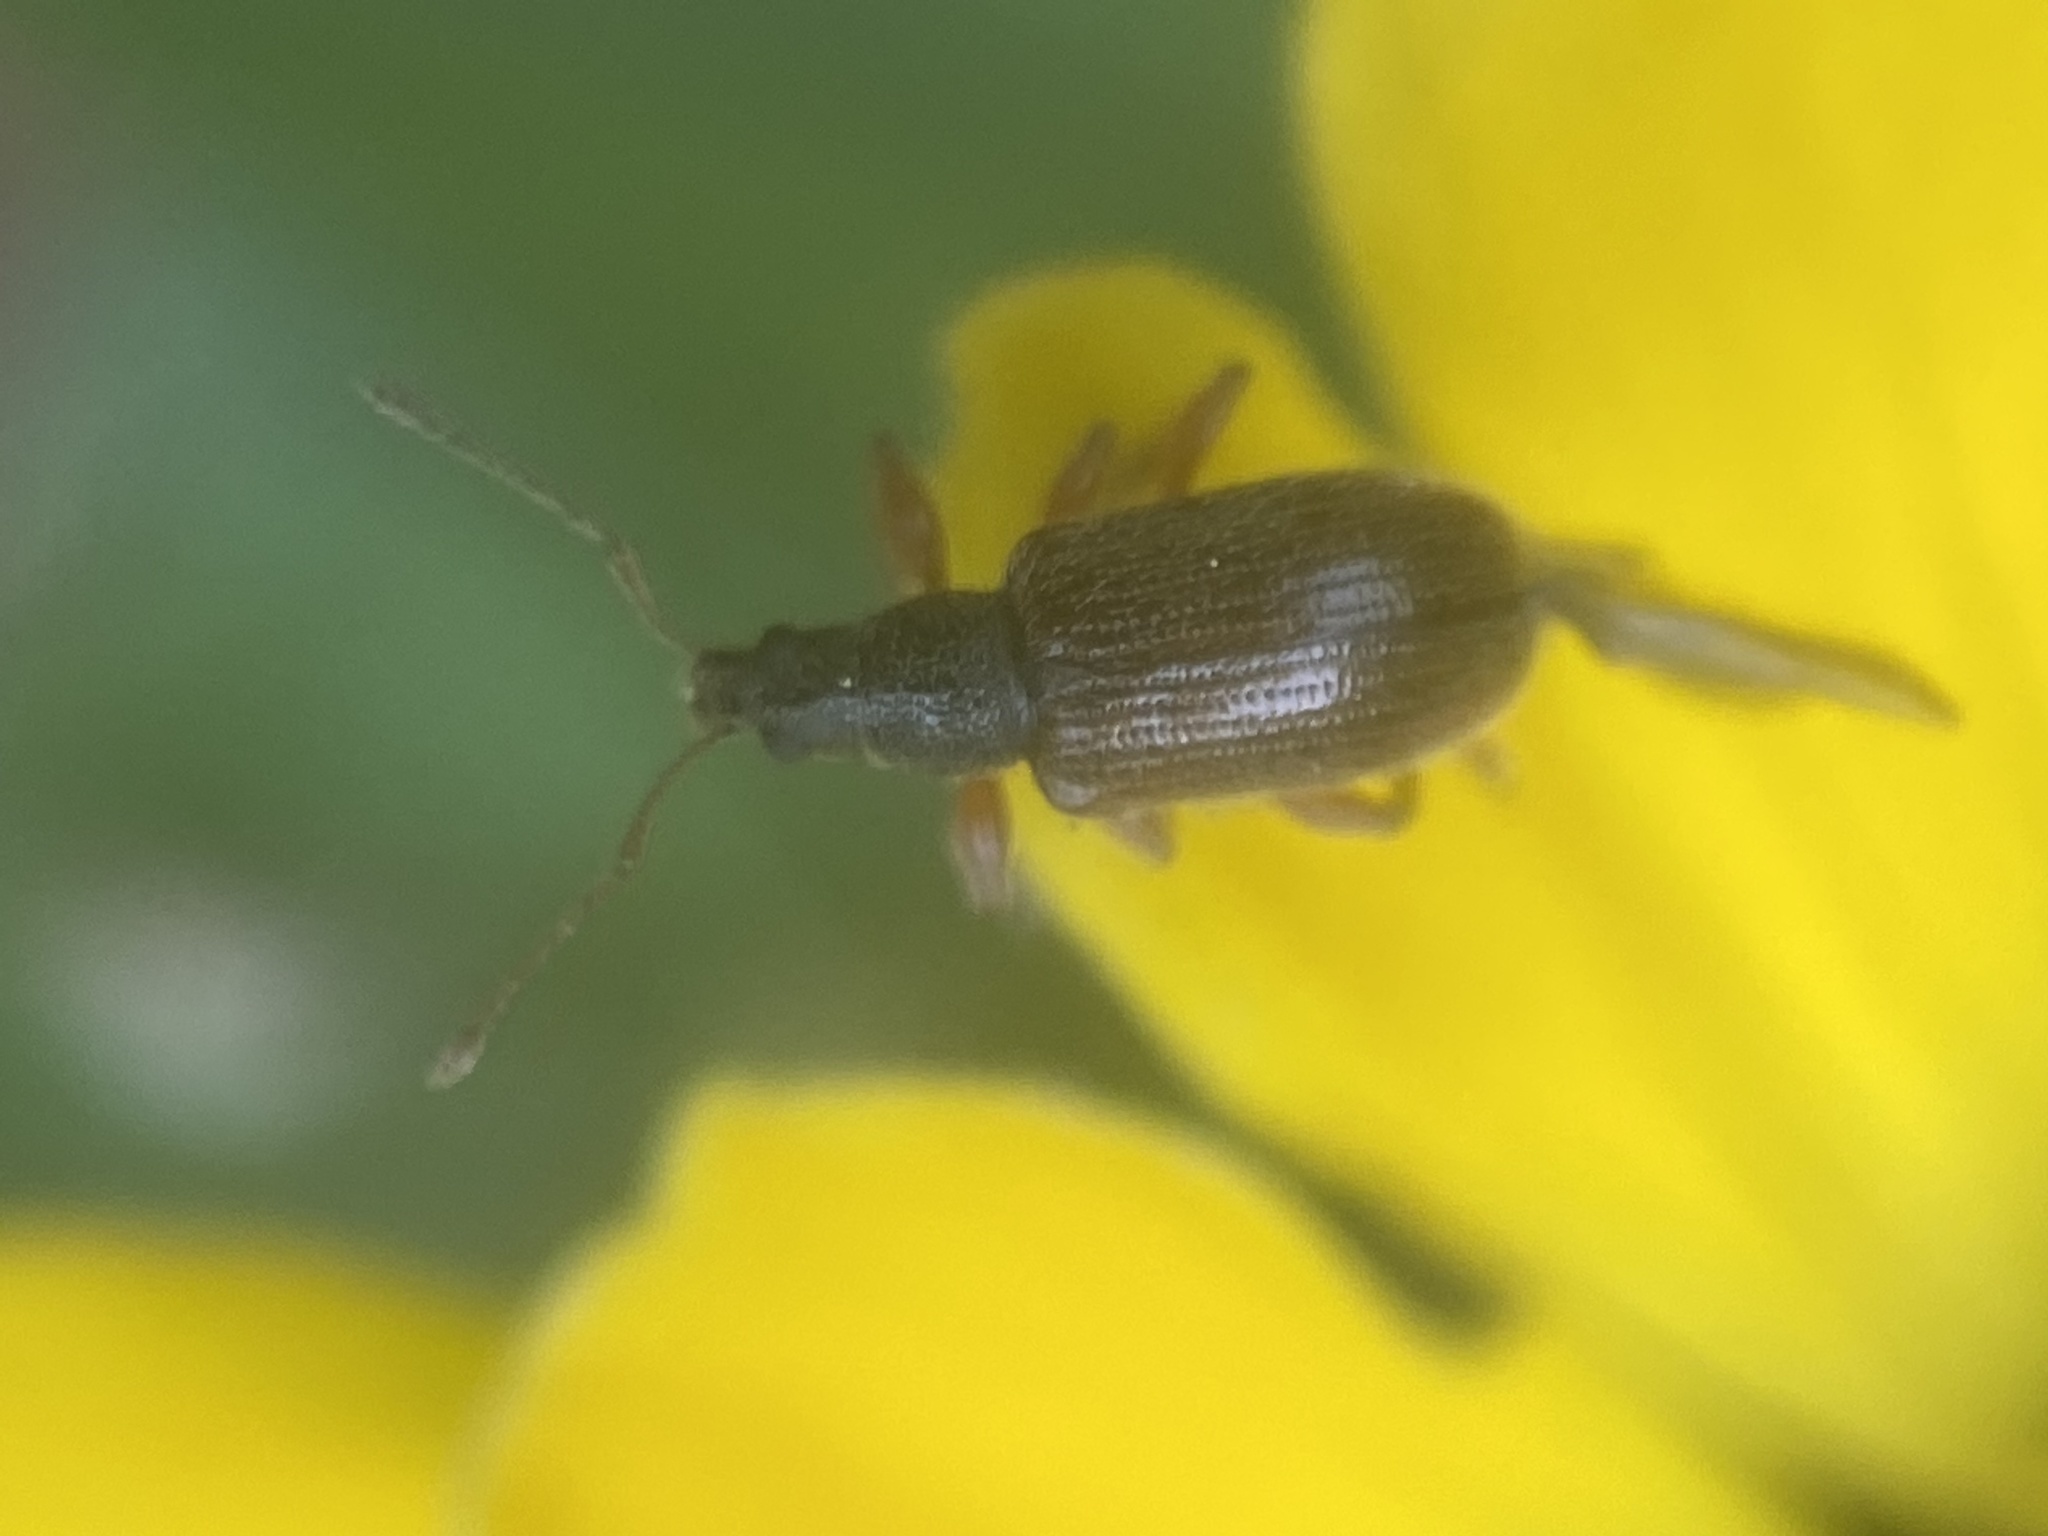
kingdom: Animalia
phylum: Arthropoda
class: Insecta
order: Coleoptera
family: Curculionidae
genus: Phyllobius
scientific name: Phyllobius oblongus
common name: Brown leaf weevil
